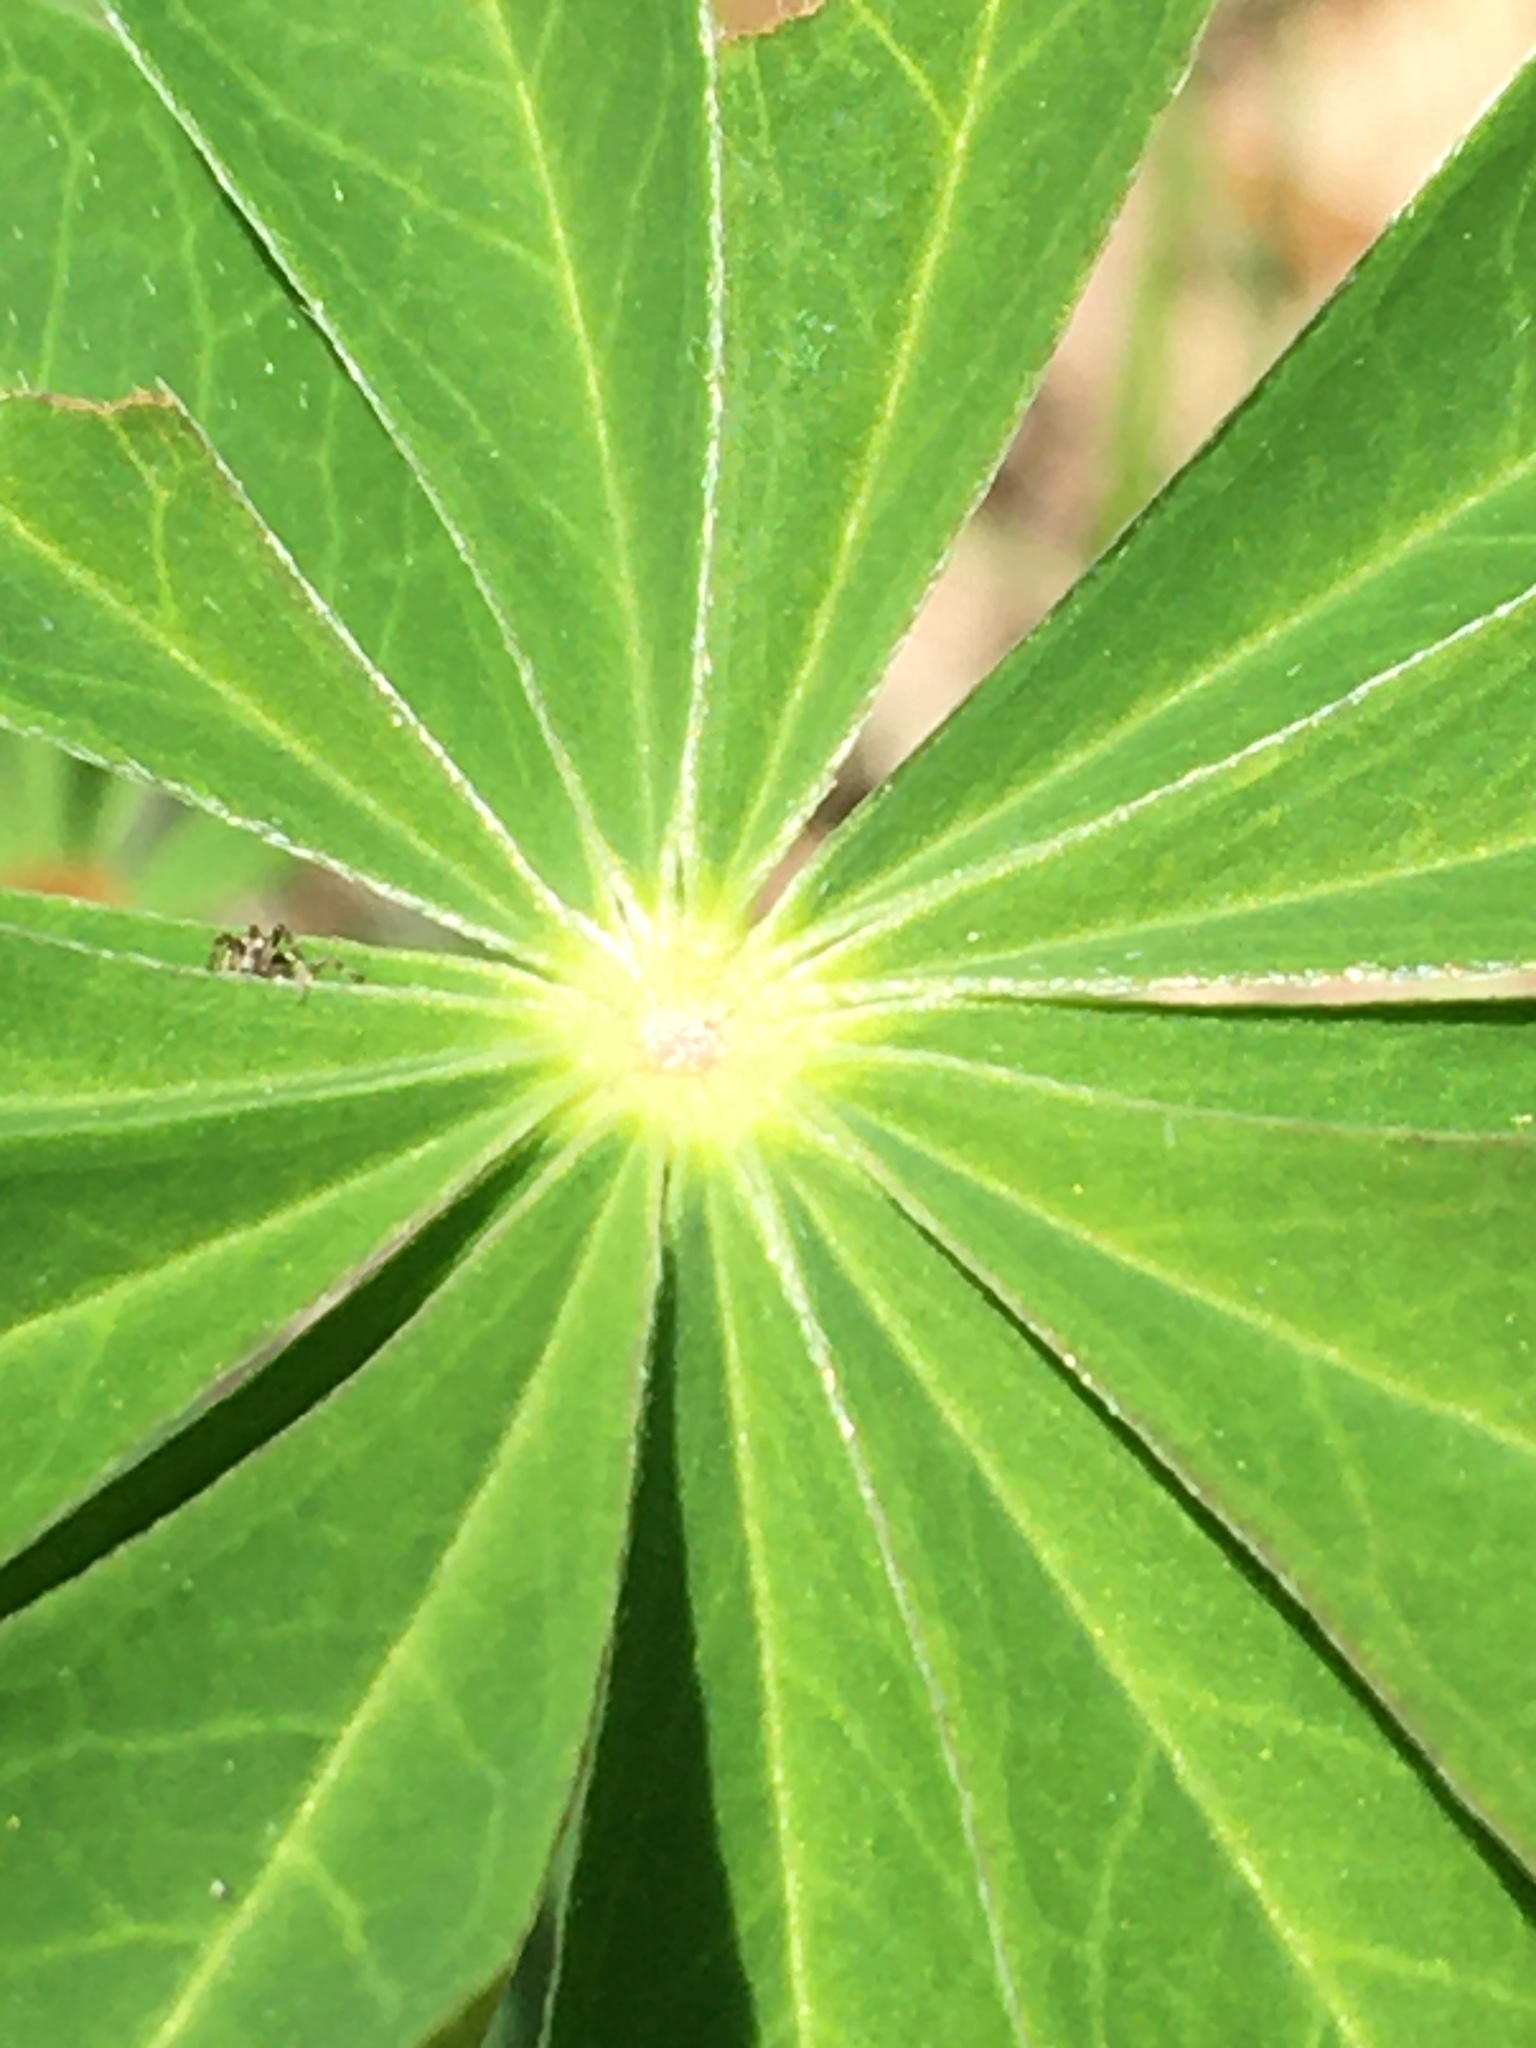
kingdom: Plantae
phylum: Tracheophyta
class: Magnoliopsida
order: Fabales
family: Fabaceae
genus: Lupinus
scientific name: Lupinus polyphyllus
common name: Garden lupin
